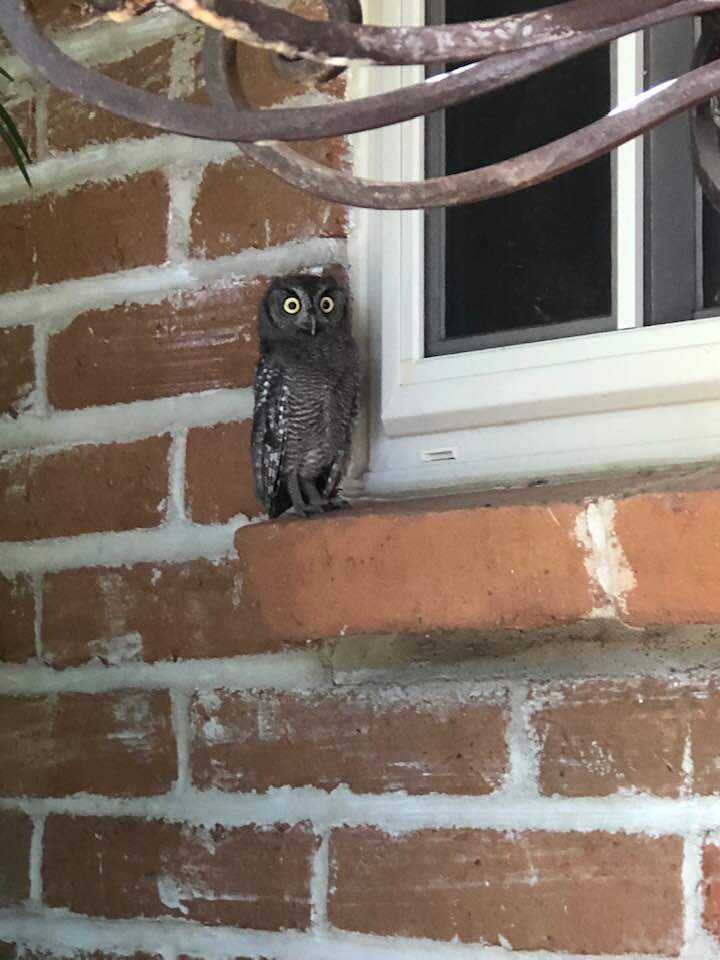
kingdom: Animalia
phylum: Chordata
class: Aves
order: Strigiformes
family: Strigidae
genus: Megascops
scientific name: Megascops kennicottii
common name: Western screech-owl
